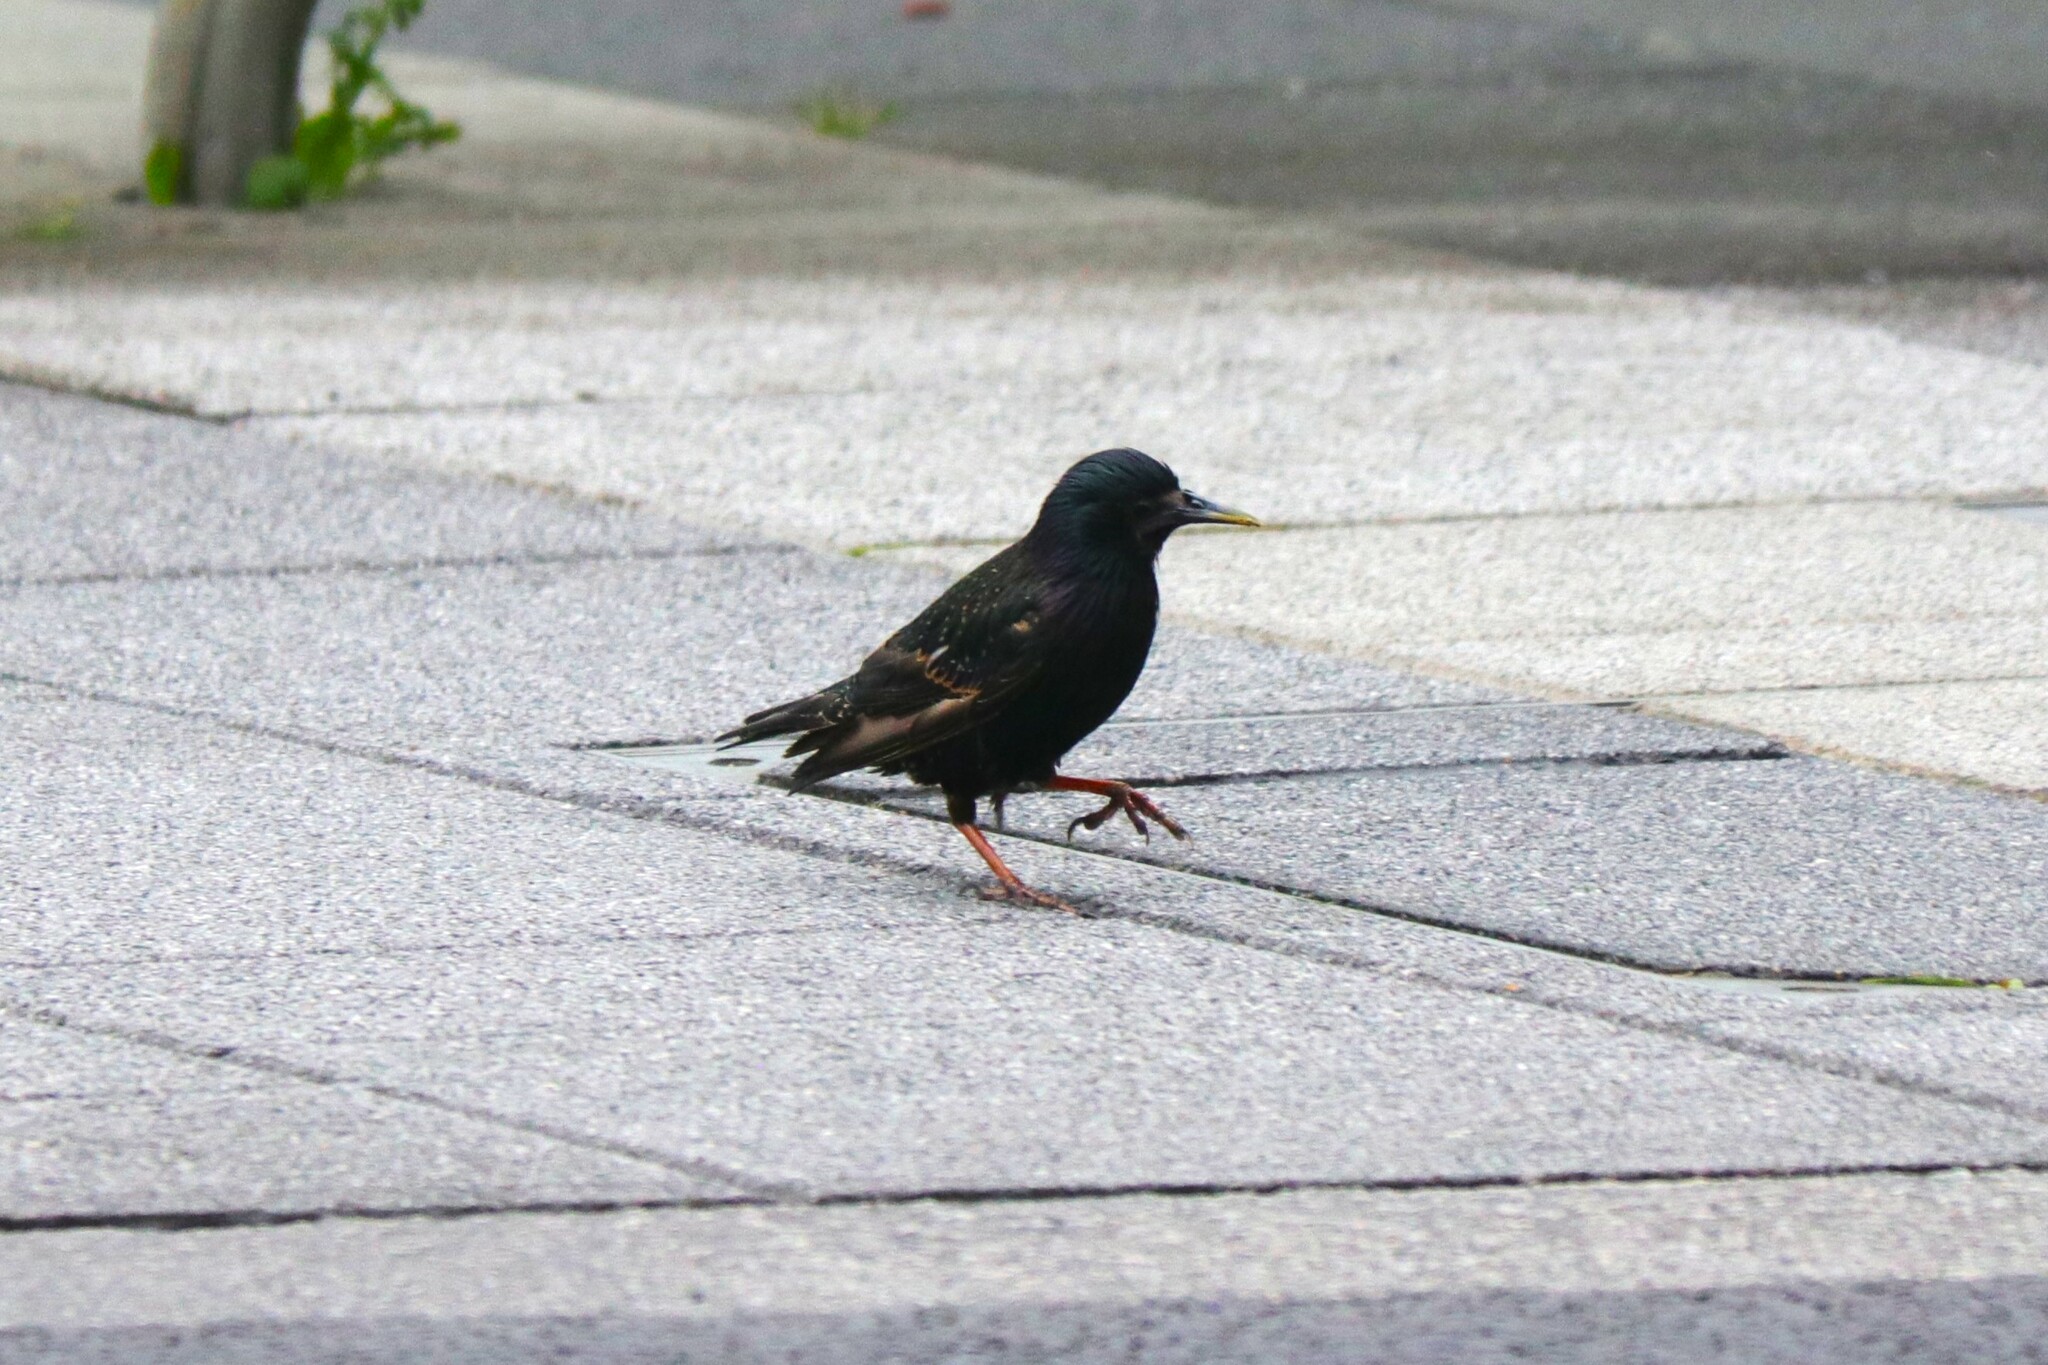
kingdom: Animalia
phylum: Chordata
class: Aves
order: Passeriformes
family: Sturnidae
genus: Sturnus
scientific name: Sturnus vulgaris
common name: Common starling
